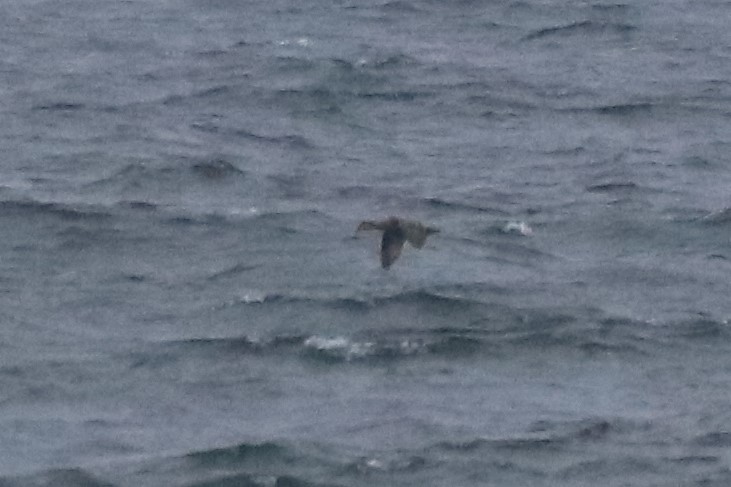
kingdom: Animalia
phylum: Chordata
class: Aves
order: Anseriformes
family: Anatidae
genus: Somateria
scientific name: Somateria mollissima
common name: Common eider
